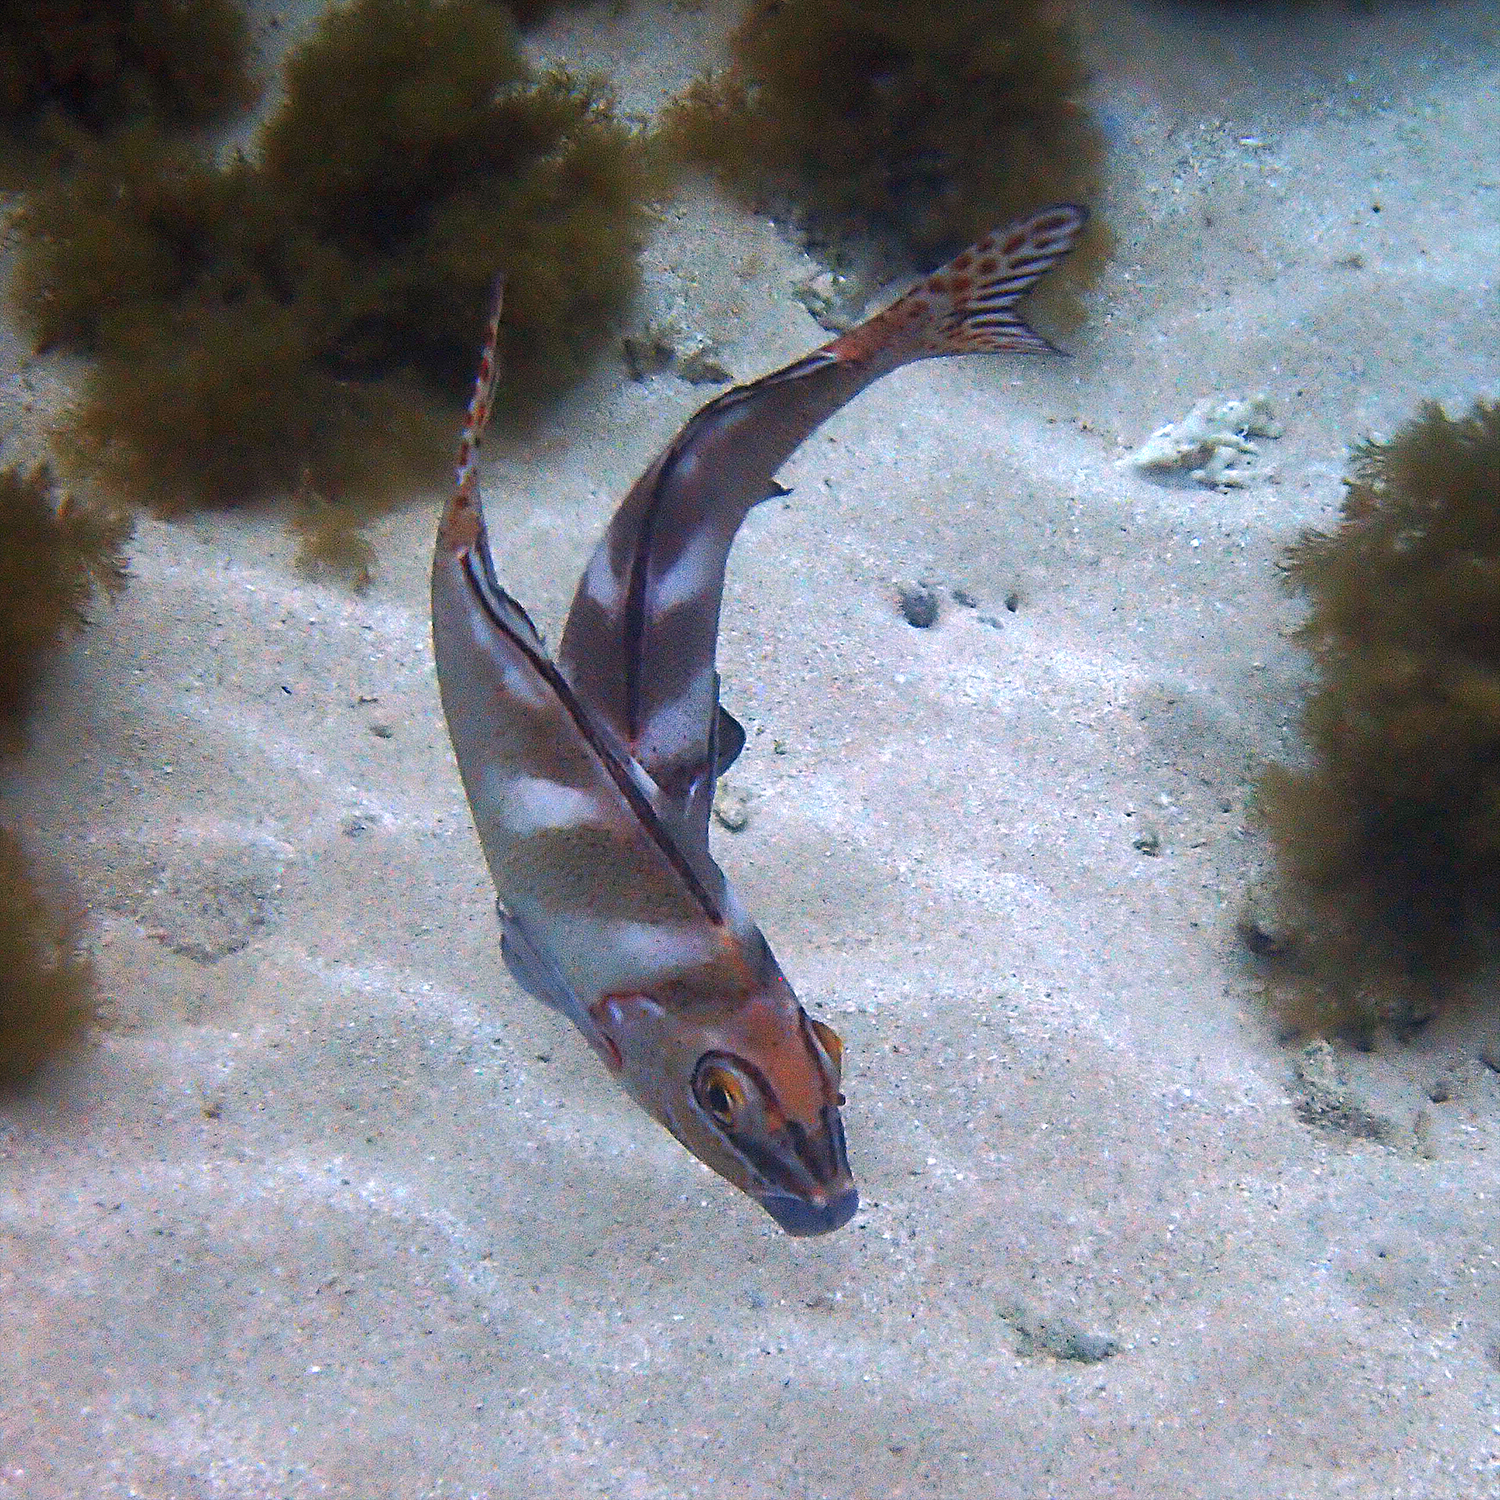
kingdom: Animalia
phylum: Chordata
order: Perciformes
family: Latridae
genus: Morwong
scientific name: Morwong ephippium
